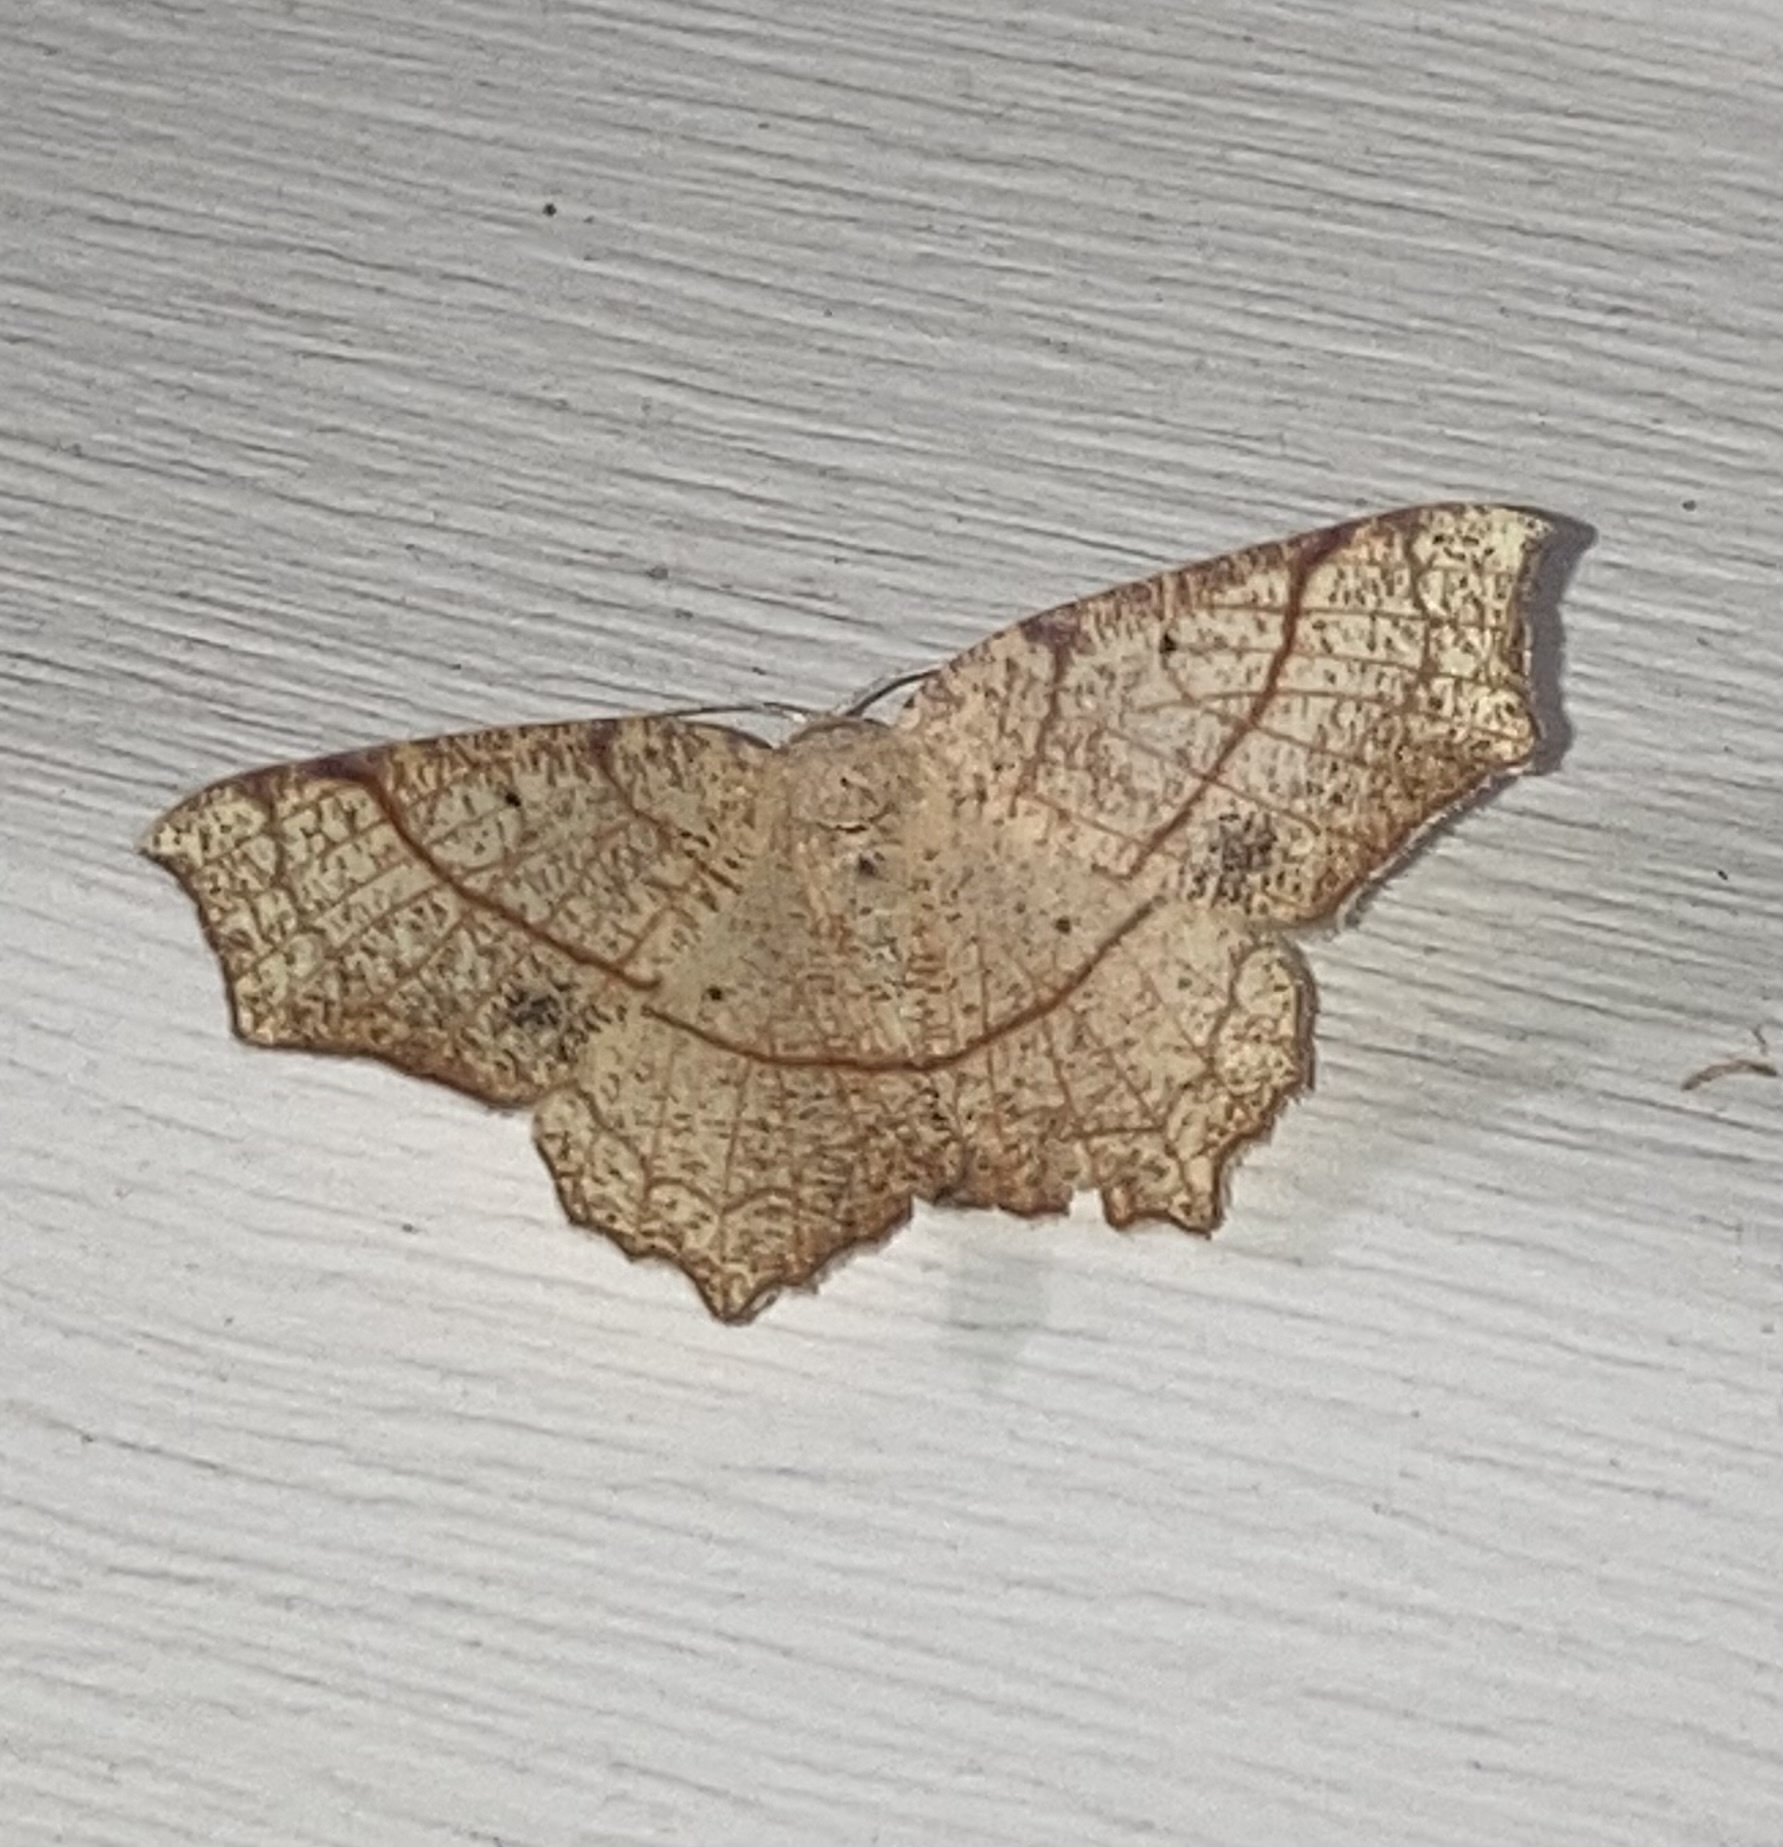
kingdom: Animalia
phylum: Arthropoda
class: Insecta
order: Lepidoptera
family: Geometridae
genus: Besma
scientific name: Besma quercivoraria
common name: Oak besma
